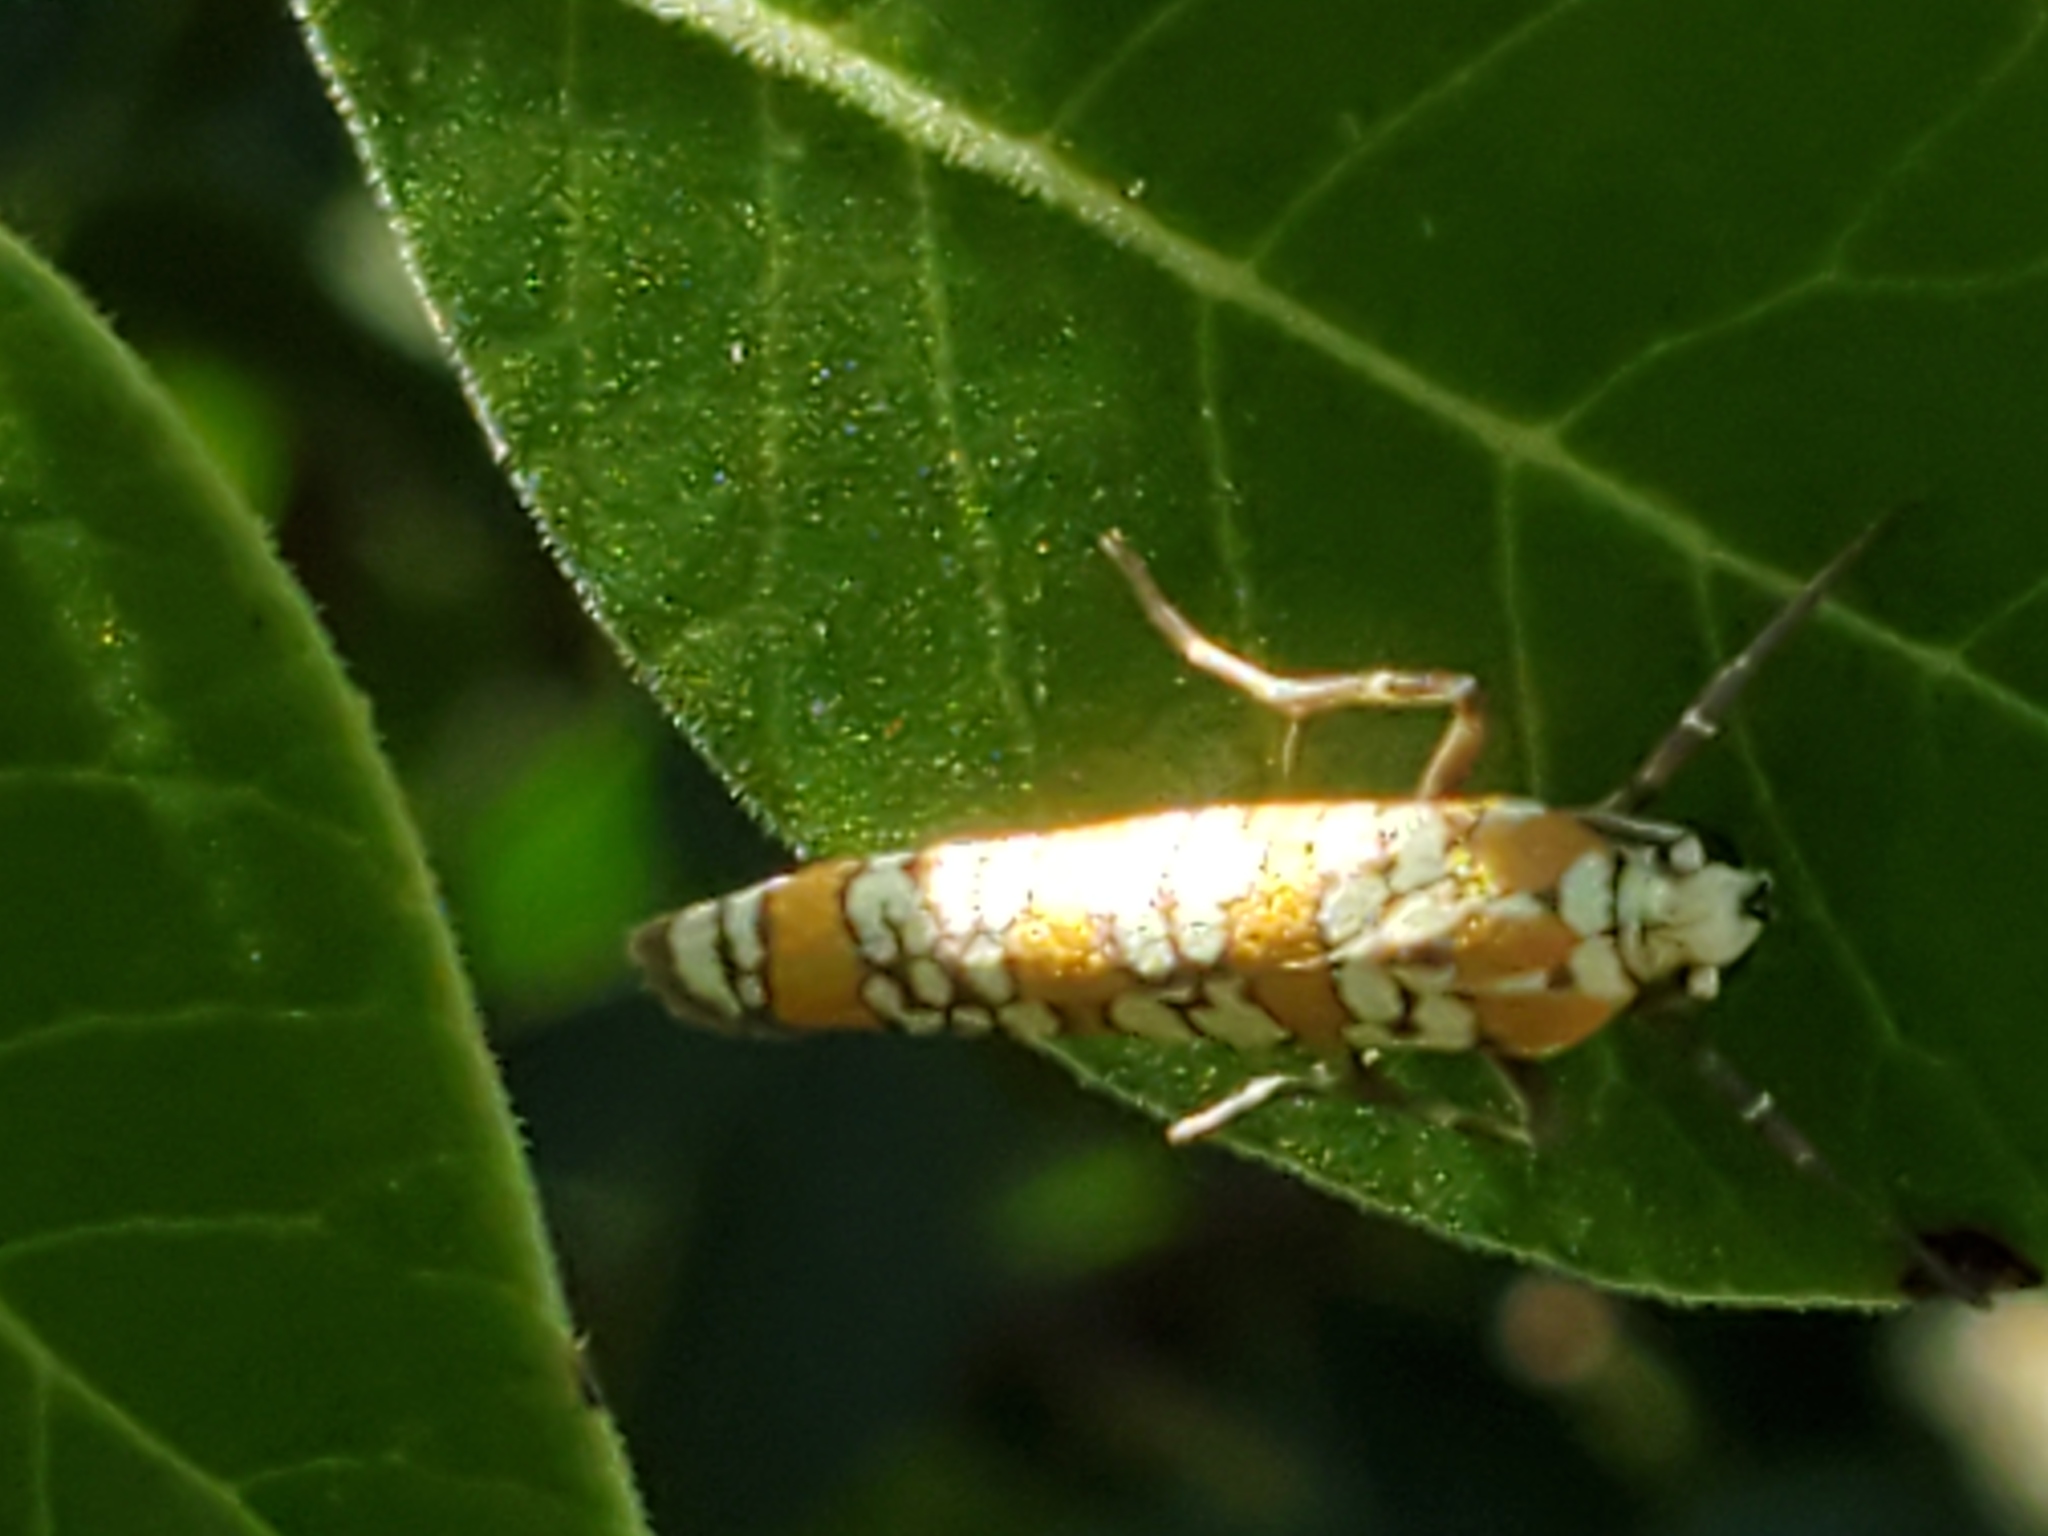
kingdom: Animalia
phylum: Arthropoda
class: Insecta
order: Lepidoptera
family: Attevidae
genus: Atteva
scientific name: Atteva punctella
